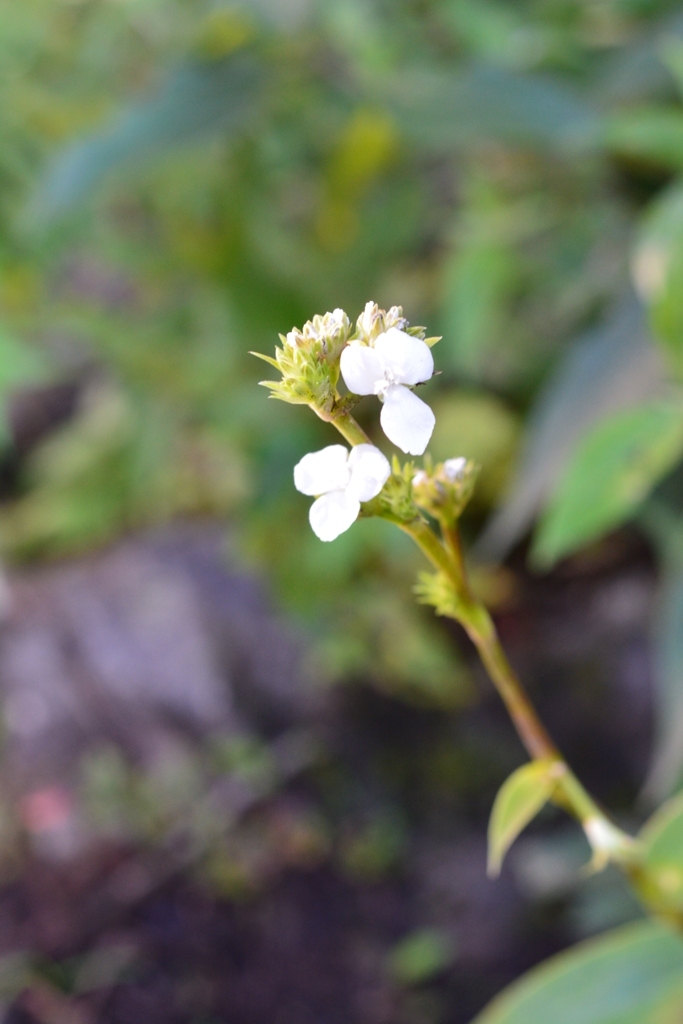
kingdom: Plantae
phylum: Tracheophyta
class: Liliopsida
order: Commelinales
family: Commelinaceae
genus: Callisia
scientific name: Callisia gentlei
